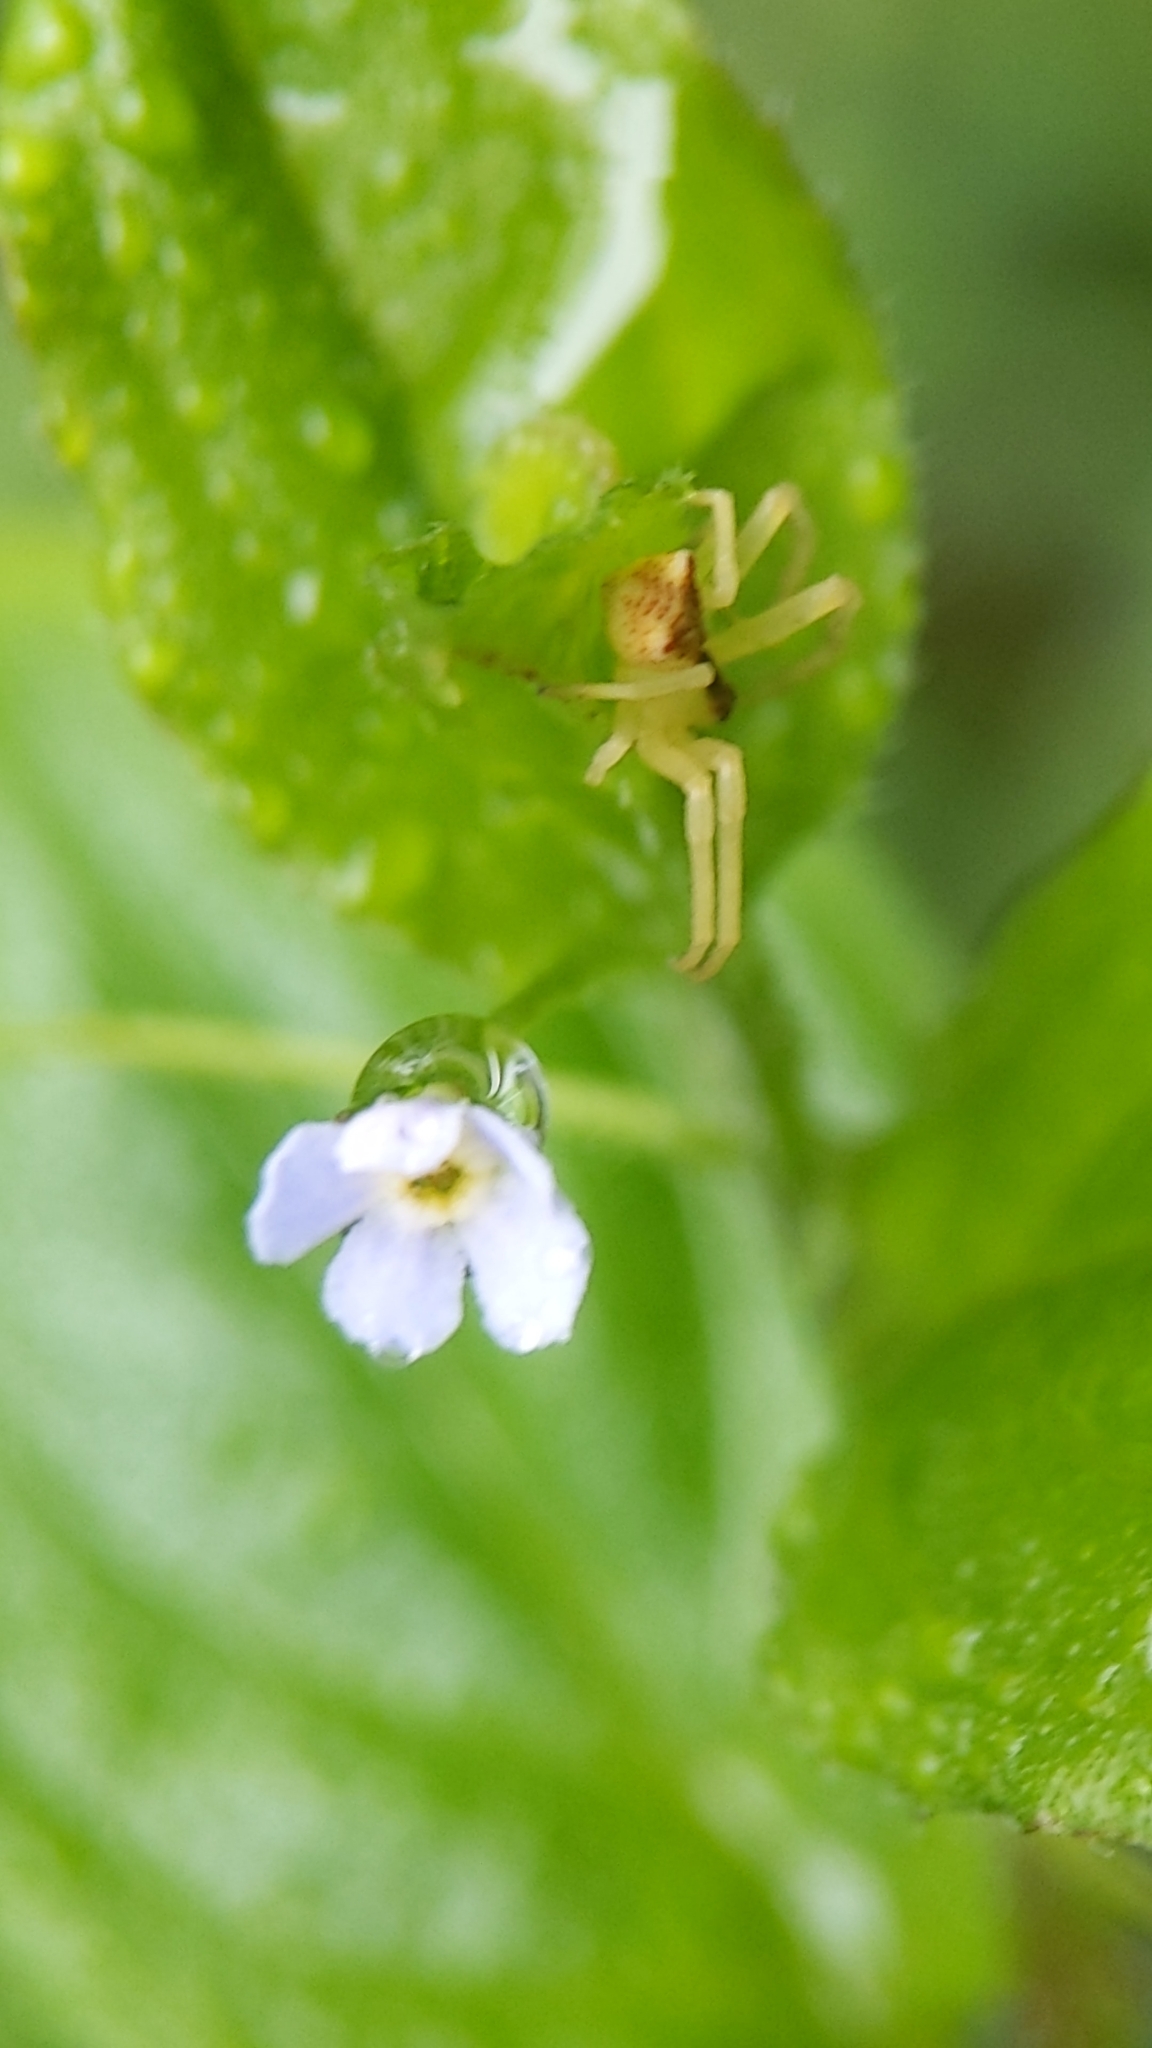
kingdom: Plantae
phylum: Tracheophyta
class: Magnoliopsida
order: Boraginales
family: Boraginaceae
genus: Hackelia
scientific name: Hackelia latifolia
